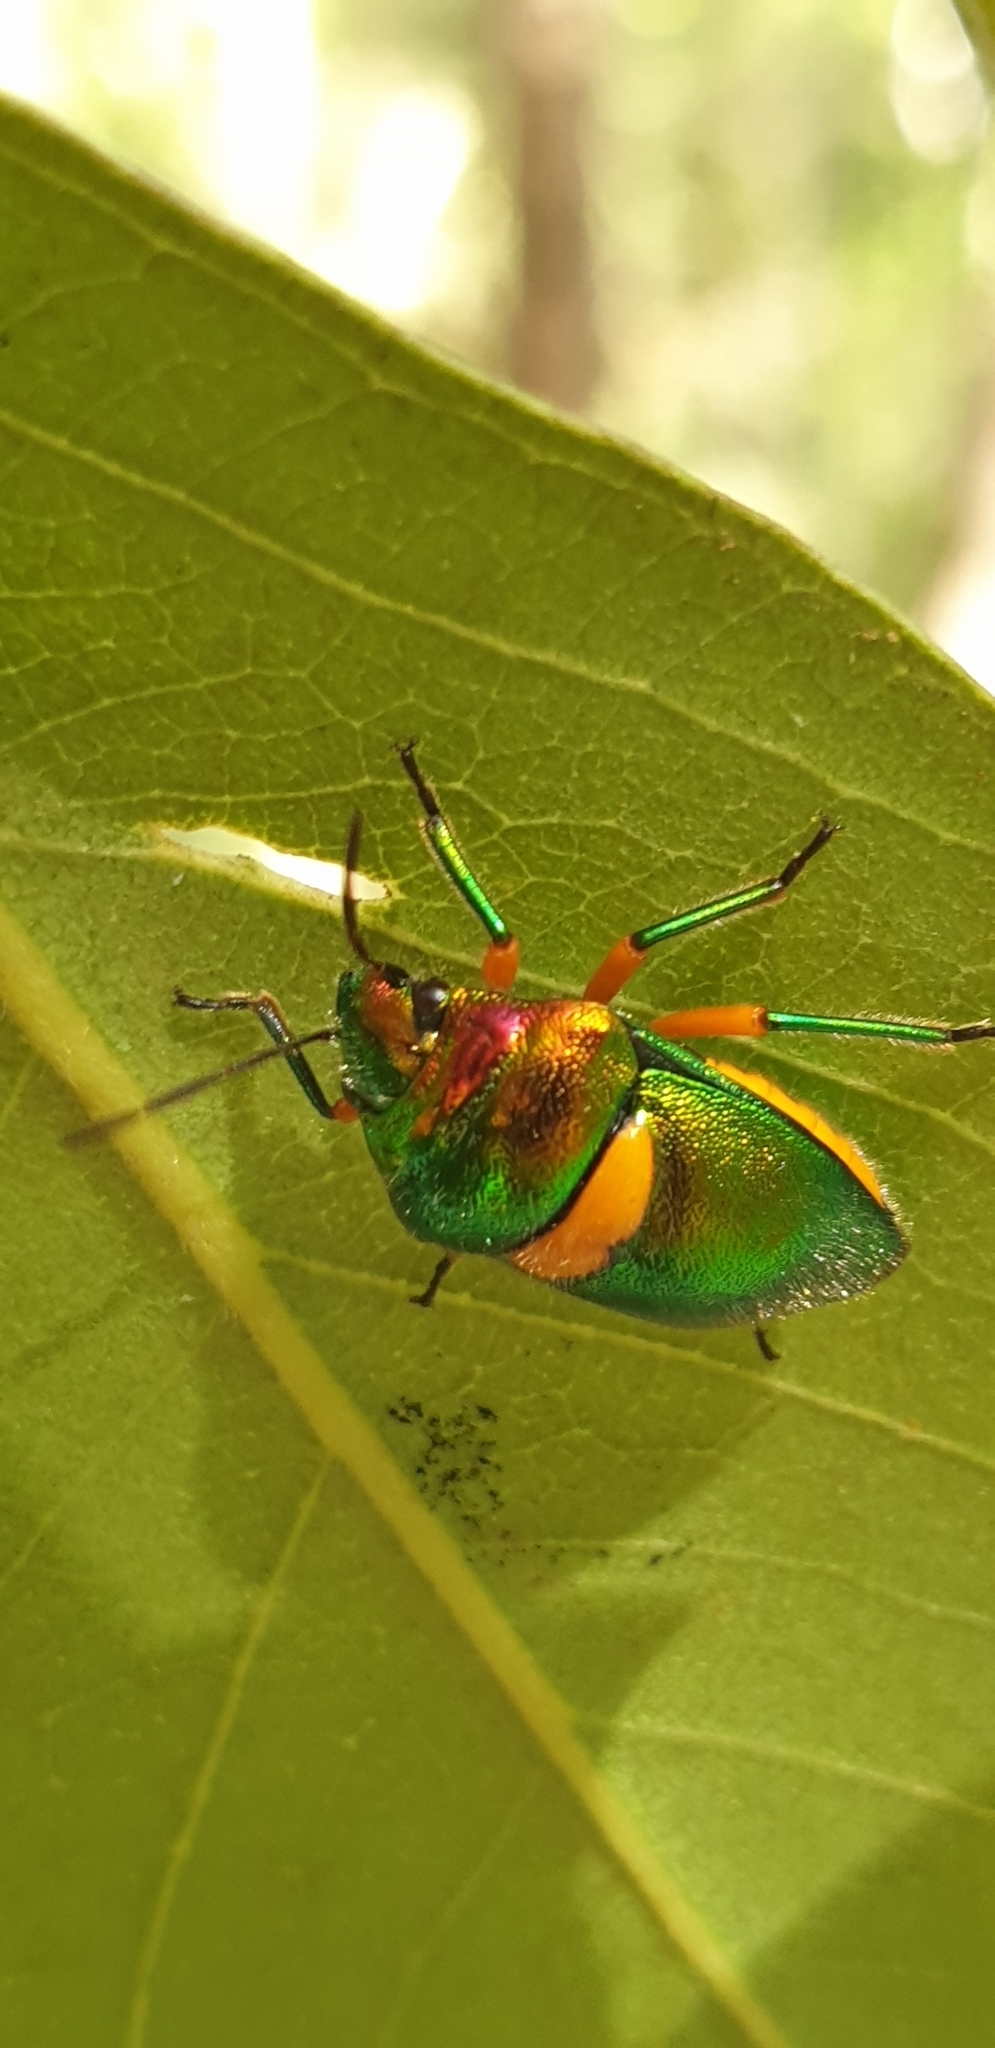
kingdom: Animalia
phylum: Arthropoda
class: Insecta
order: Hemiptera
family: Scutelleridae
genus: Lampromicra
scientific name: Lampromicra senator
